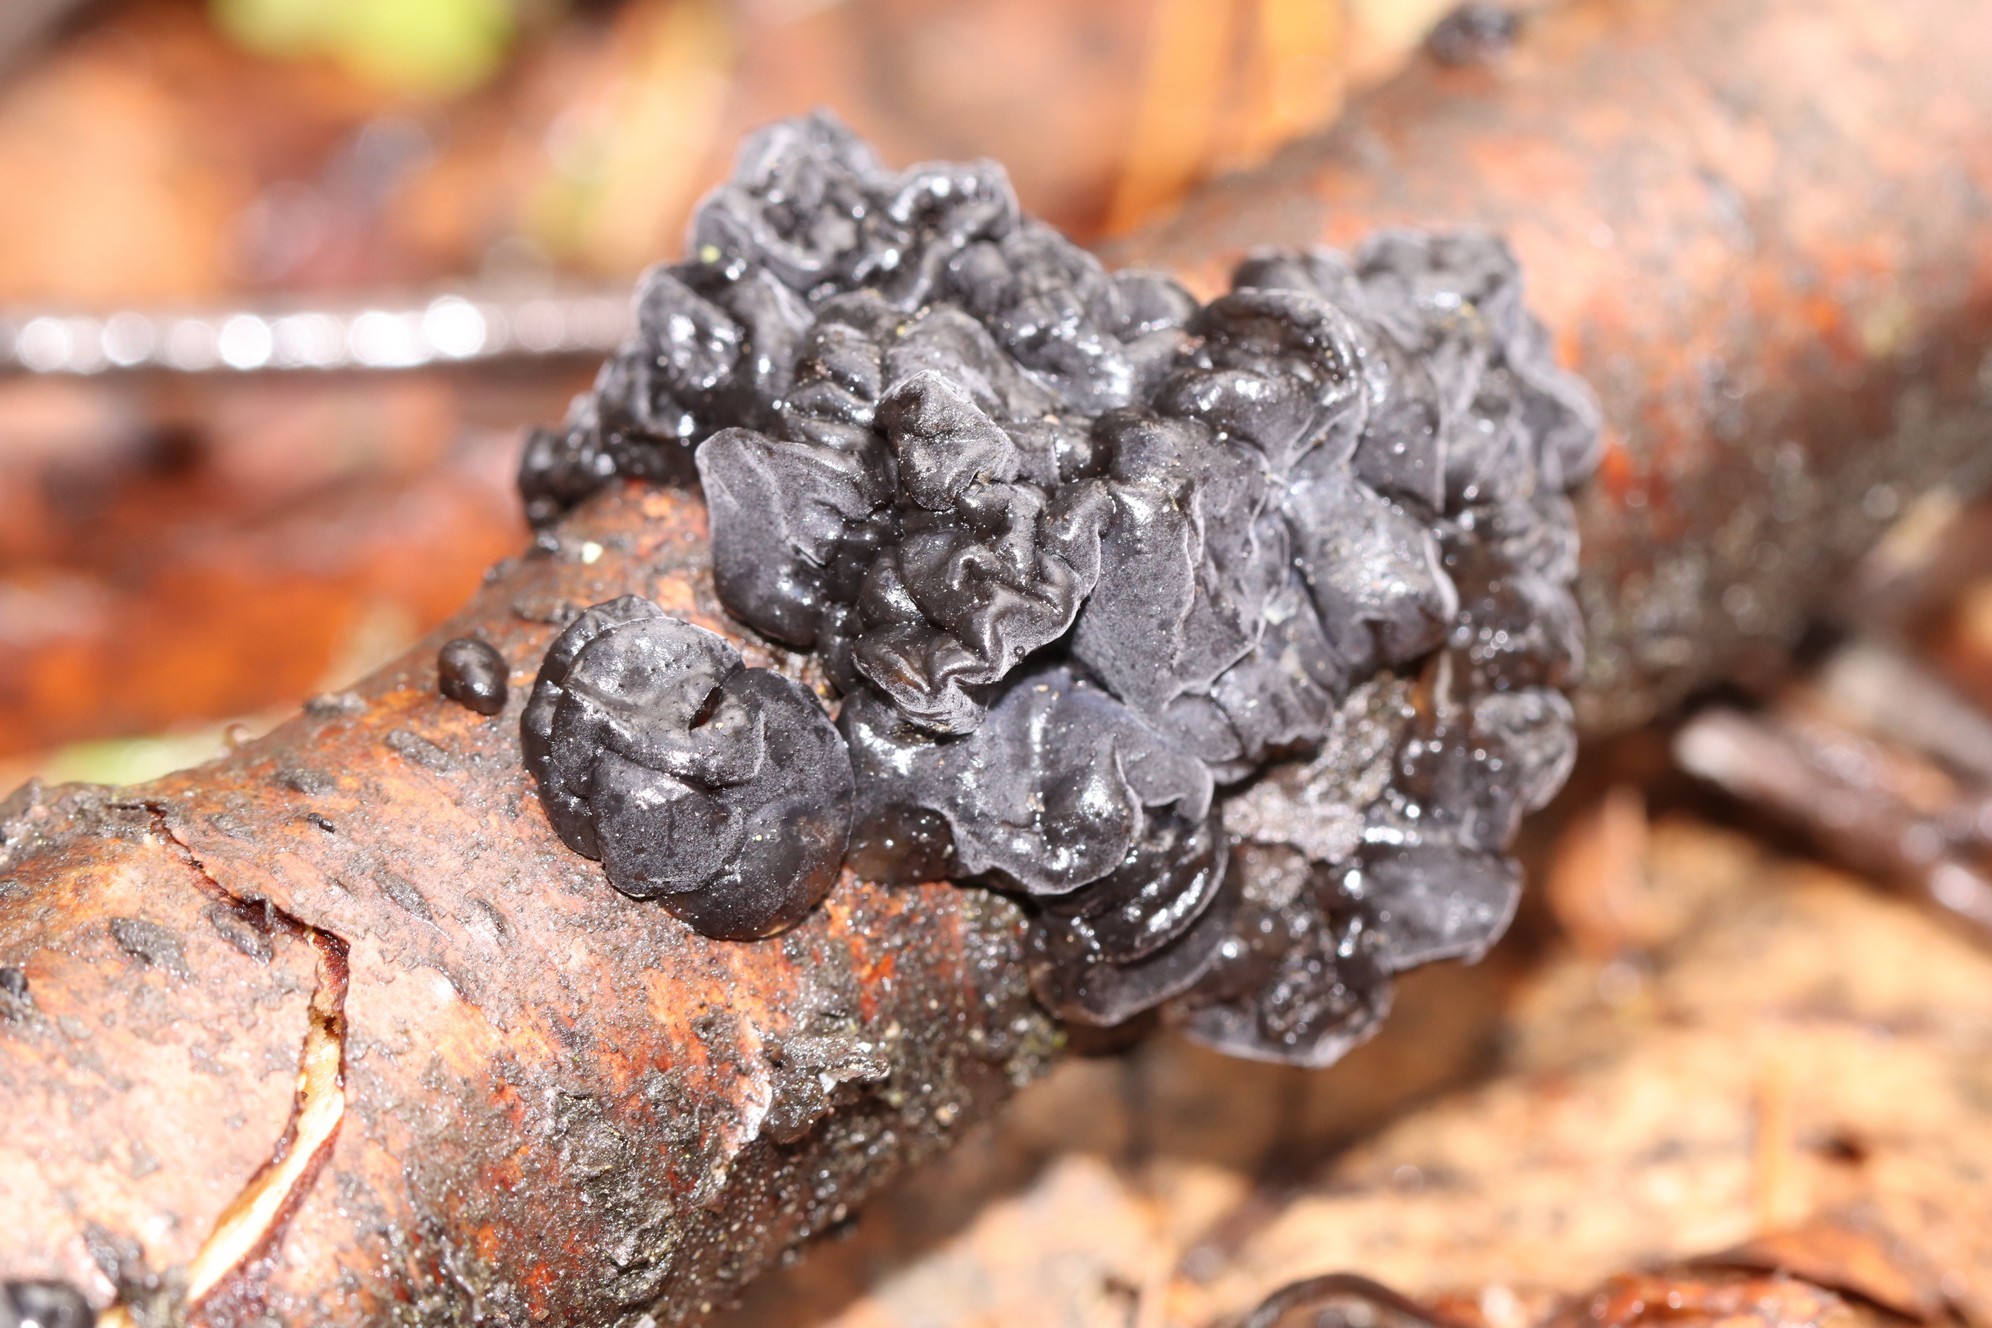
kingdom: Fungi
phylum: Basidiomycota
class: Agaricomycetes
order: Auriculariales
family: Auriculariaceae
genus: Exidia
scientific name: Exidia glandulosa
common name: Witches' butter
